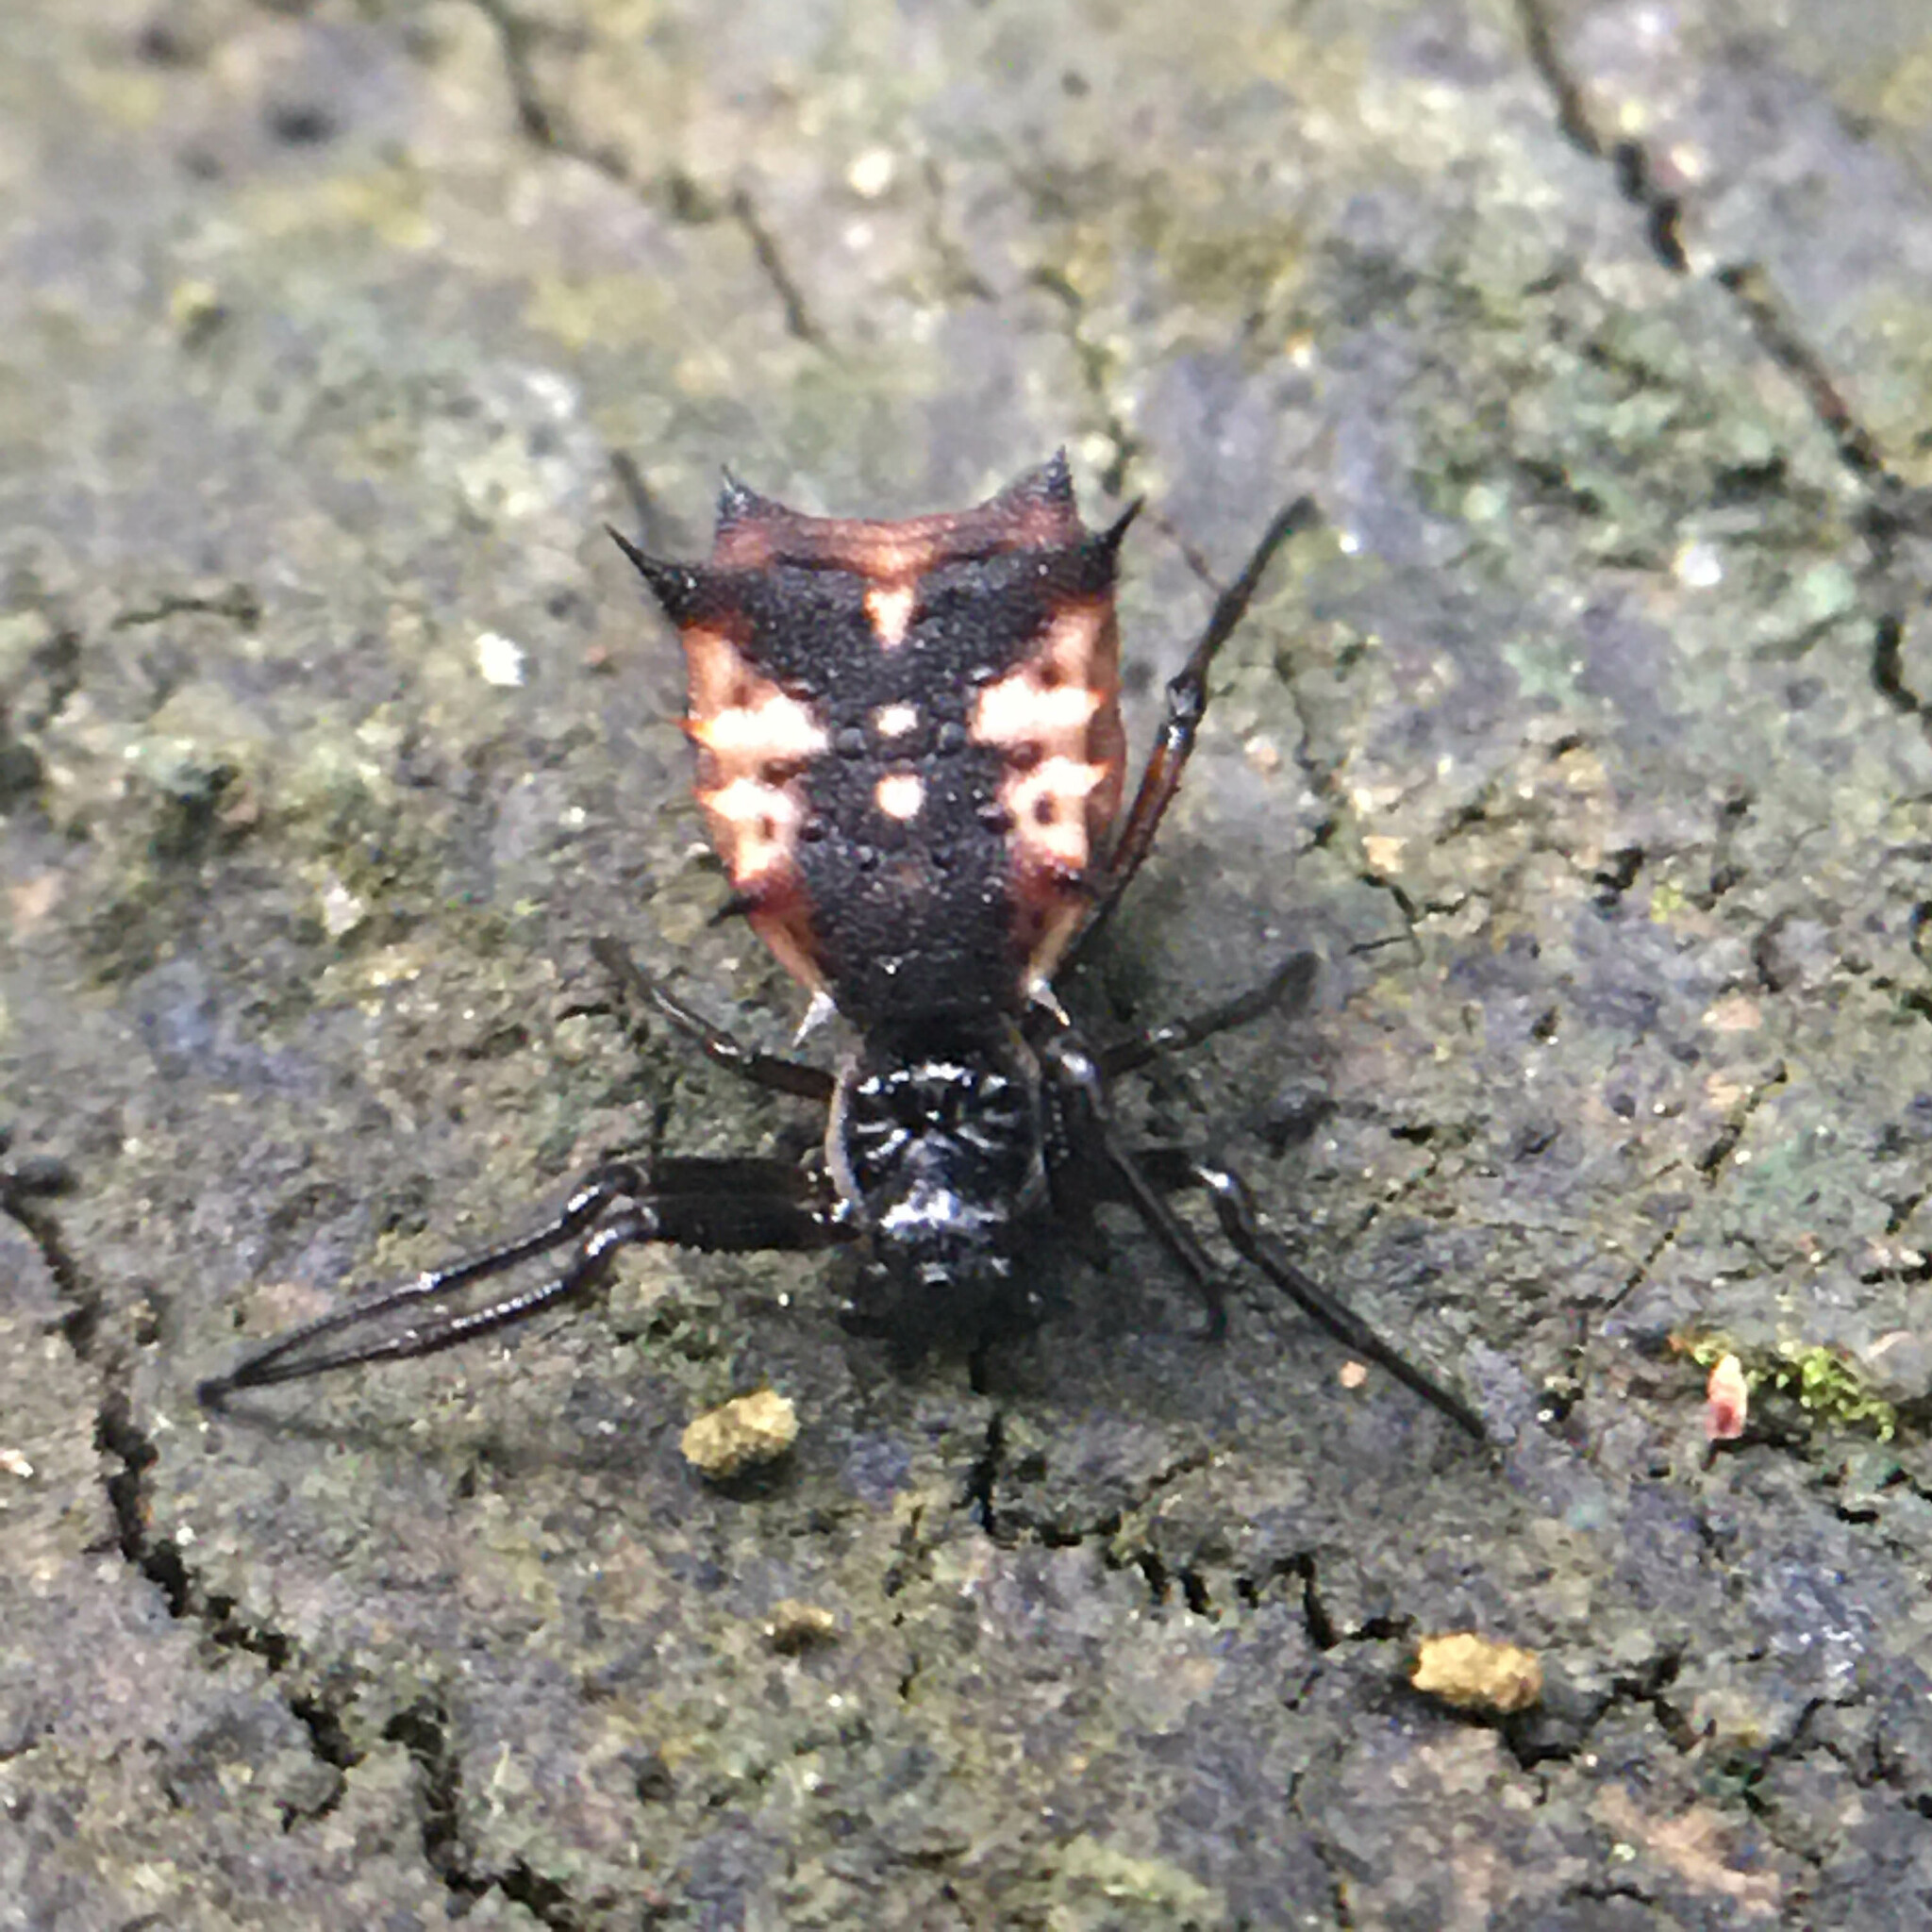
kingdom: Animalia
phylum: Arthropoda
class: Arachnida
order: Araneae
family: Araneidae
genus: Micrathena
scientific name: Micrathena aureola
